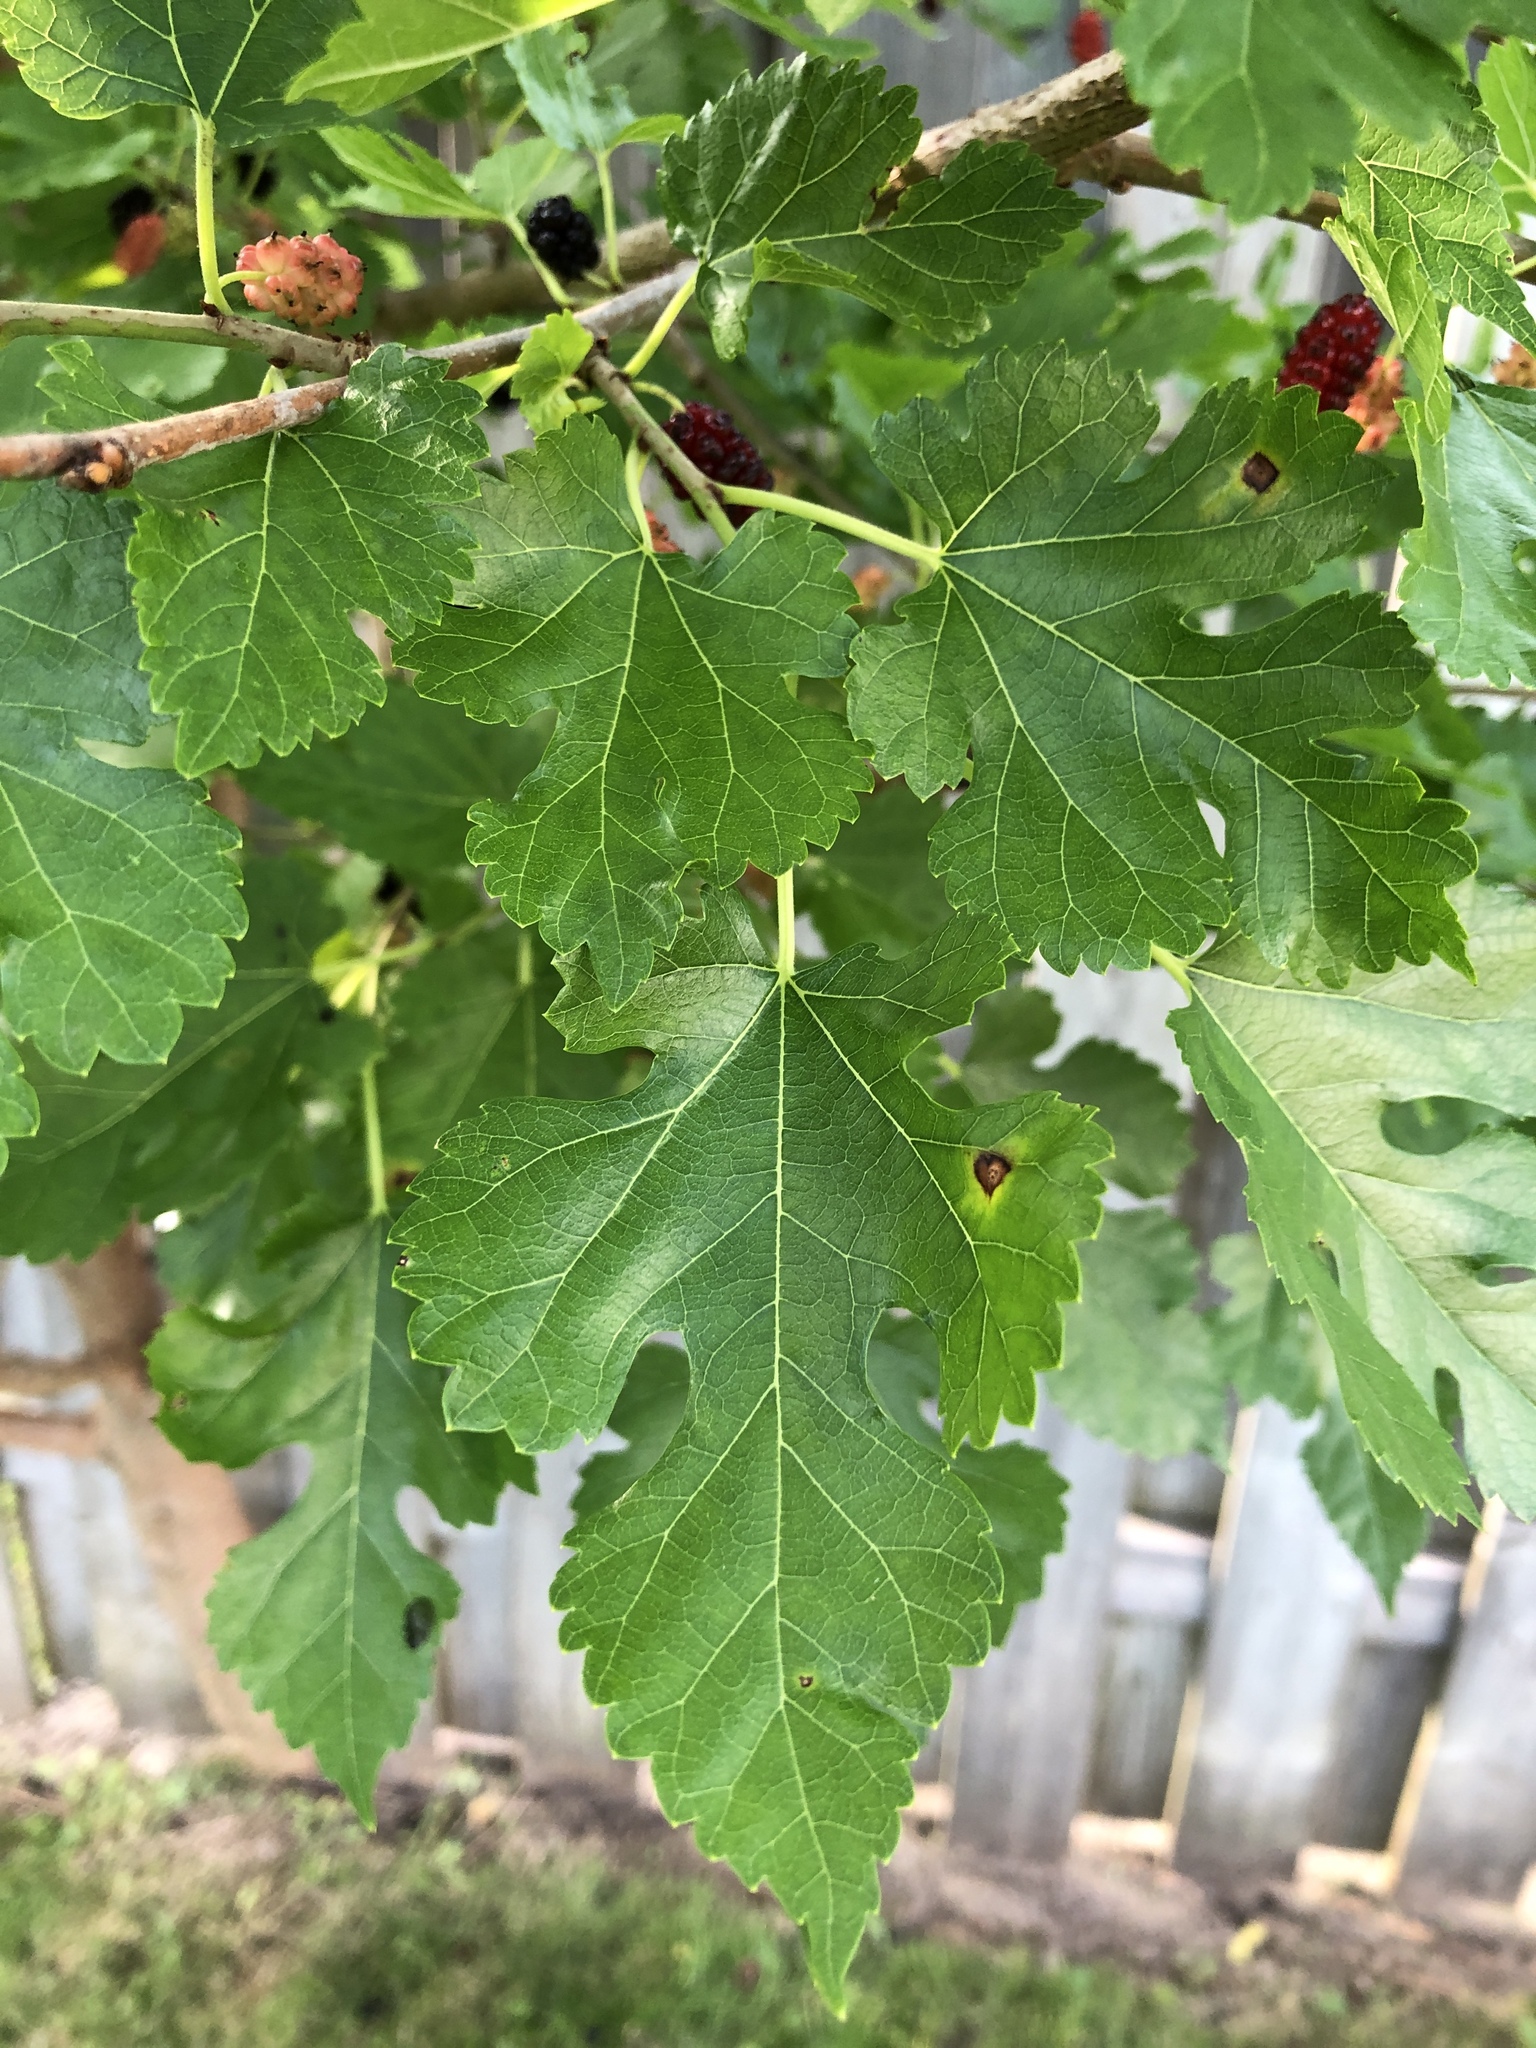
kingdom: Plantae
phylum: Tracheophyta
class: Magnoliopsida
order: Rosales
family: Moraceae
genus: Morus
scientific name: Morus alba
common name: White mulberry
